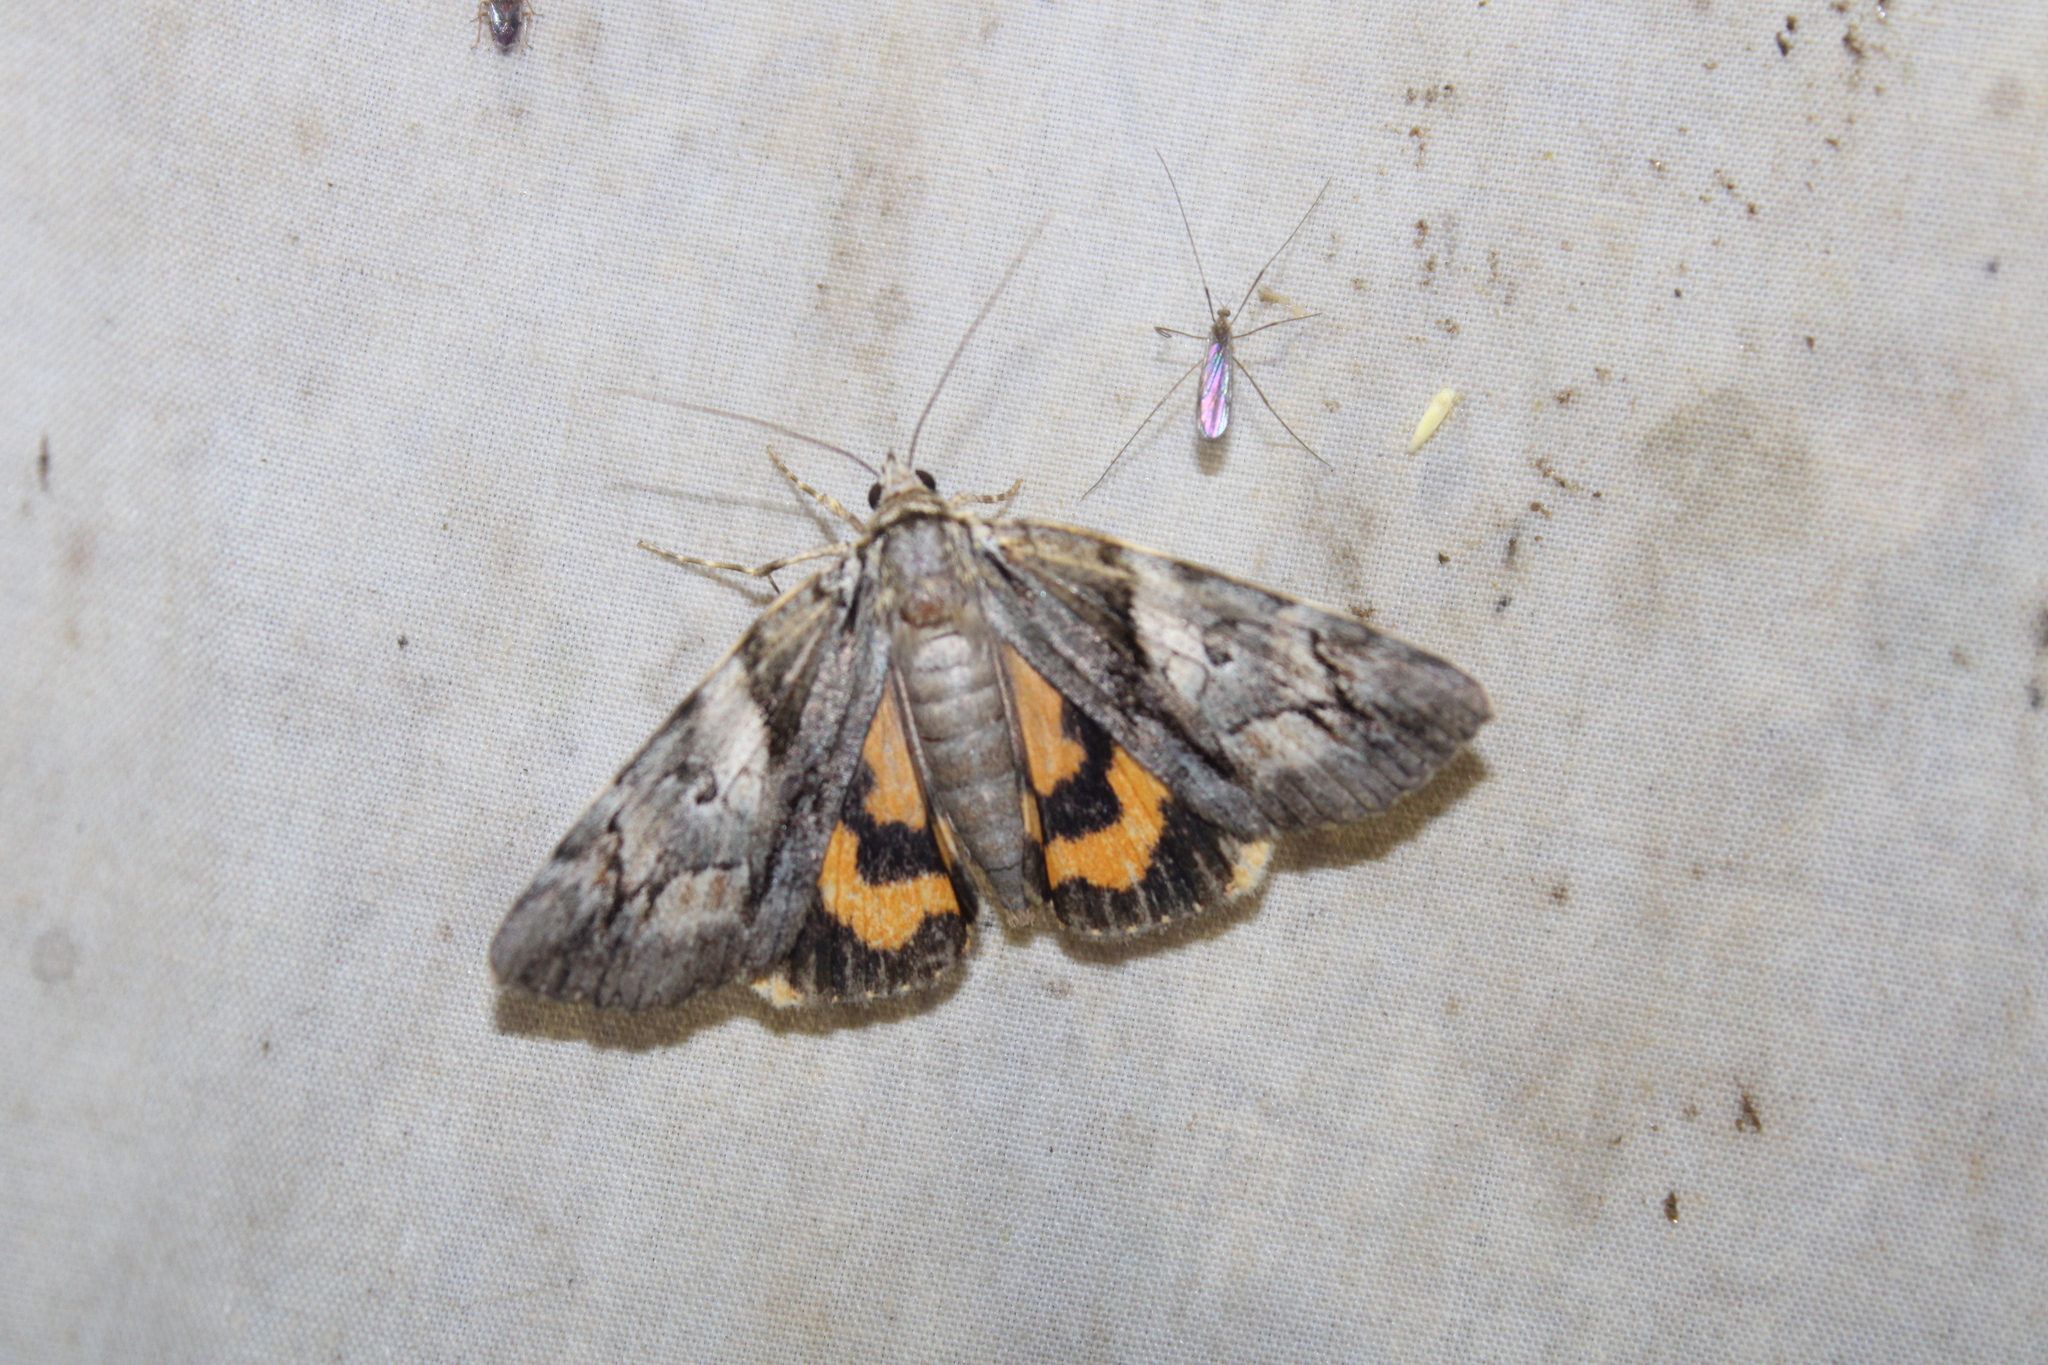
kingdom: Animalia
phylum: Arthropoda
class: Insecta
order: Lepidoptera
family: Erebidae
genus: Catocala
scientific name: Catocala blandula
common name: Charming underwing
